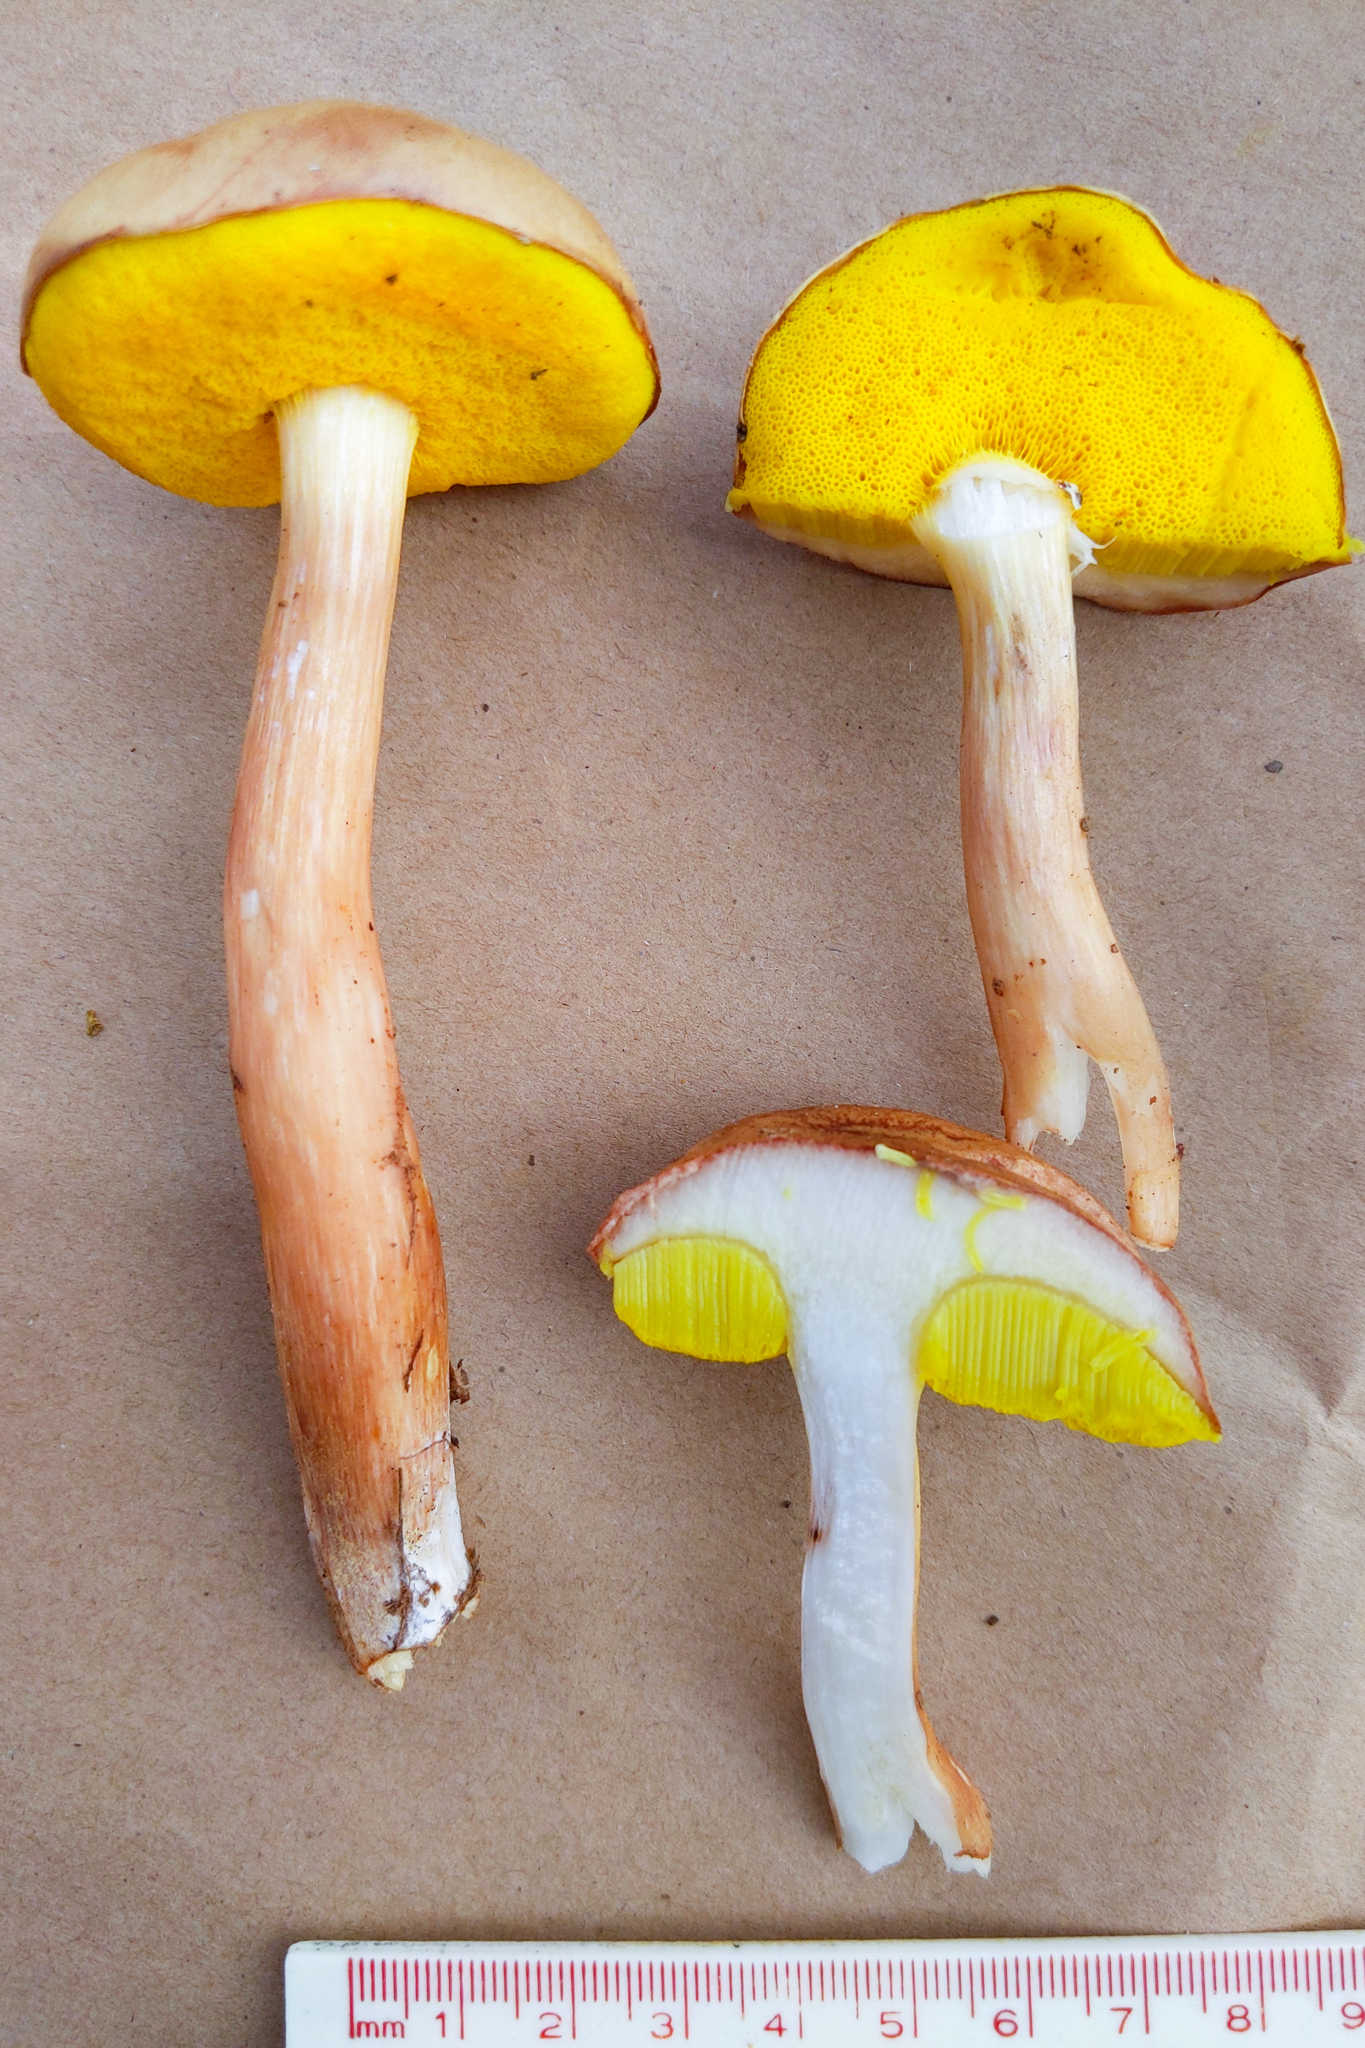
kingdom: Fungi
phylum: Basidiomycota
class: Agaricomycetes
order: Boletales
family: Boletaceae
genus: Aureoboletus
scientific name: Aureoboletus auriporus
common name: Sour gold-pored bolete
